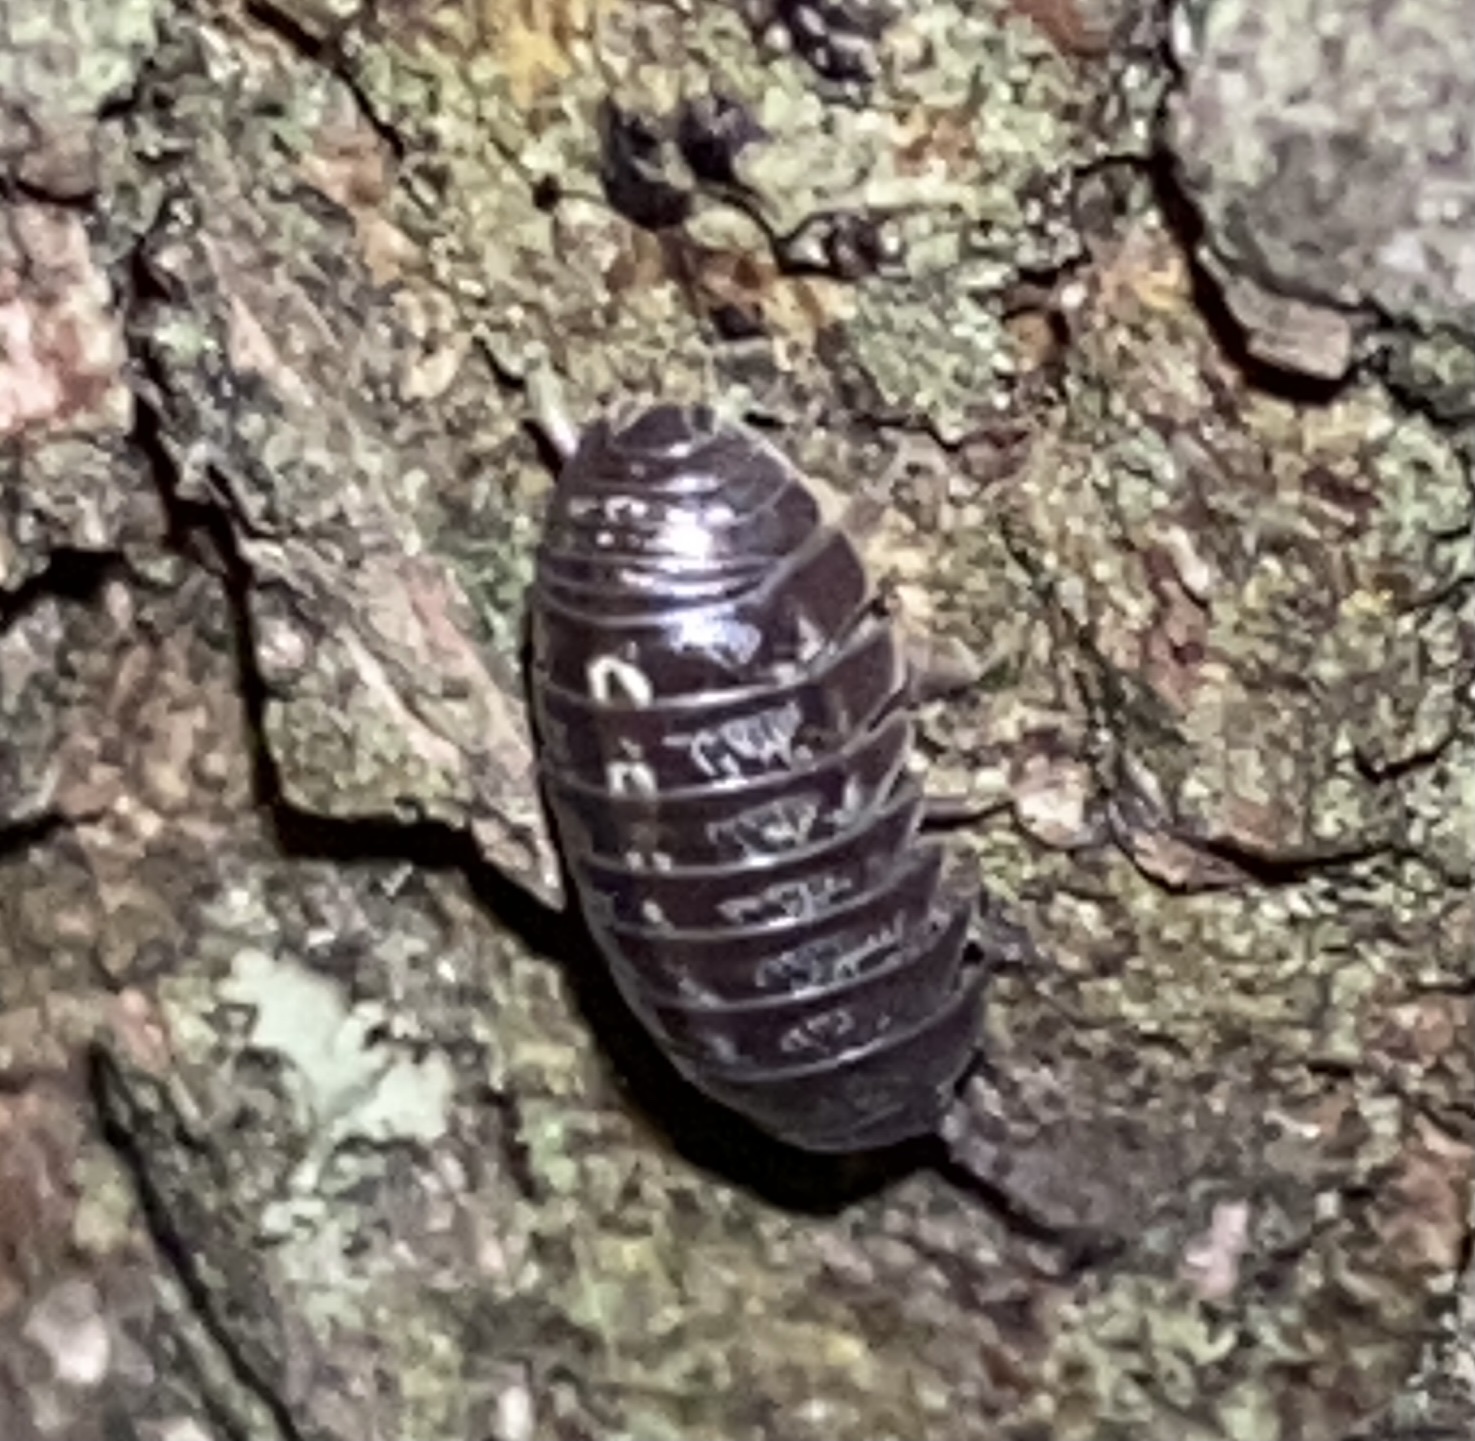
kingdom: Animalia
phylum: Arthropoda
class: Malacostraca
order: Isopoda
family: Armadillidiidae
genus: Armadillidium
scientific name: Armadillidium vulgare
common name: Common pill woodlouse
